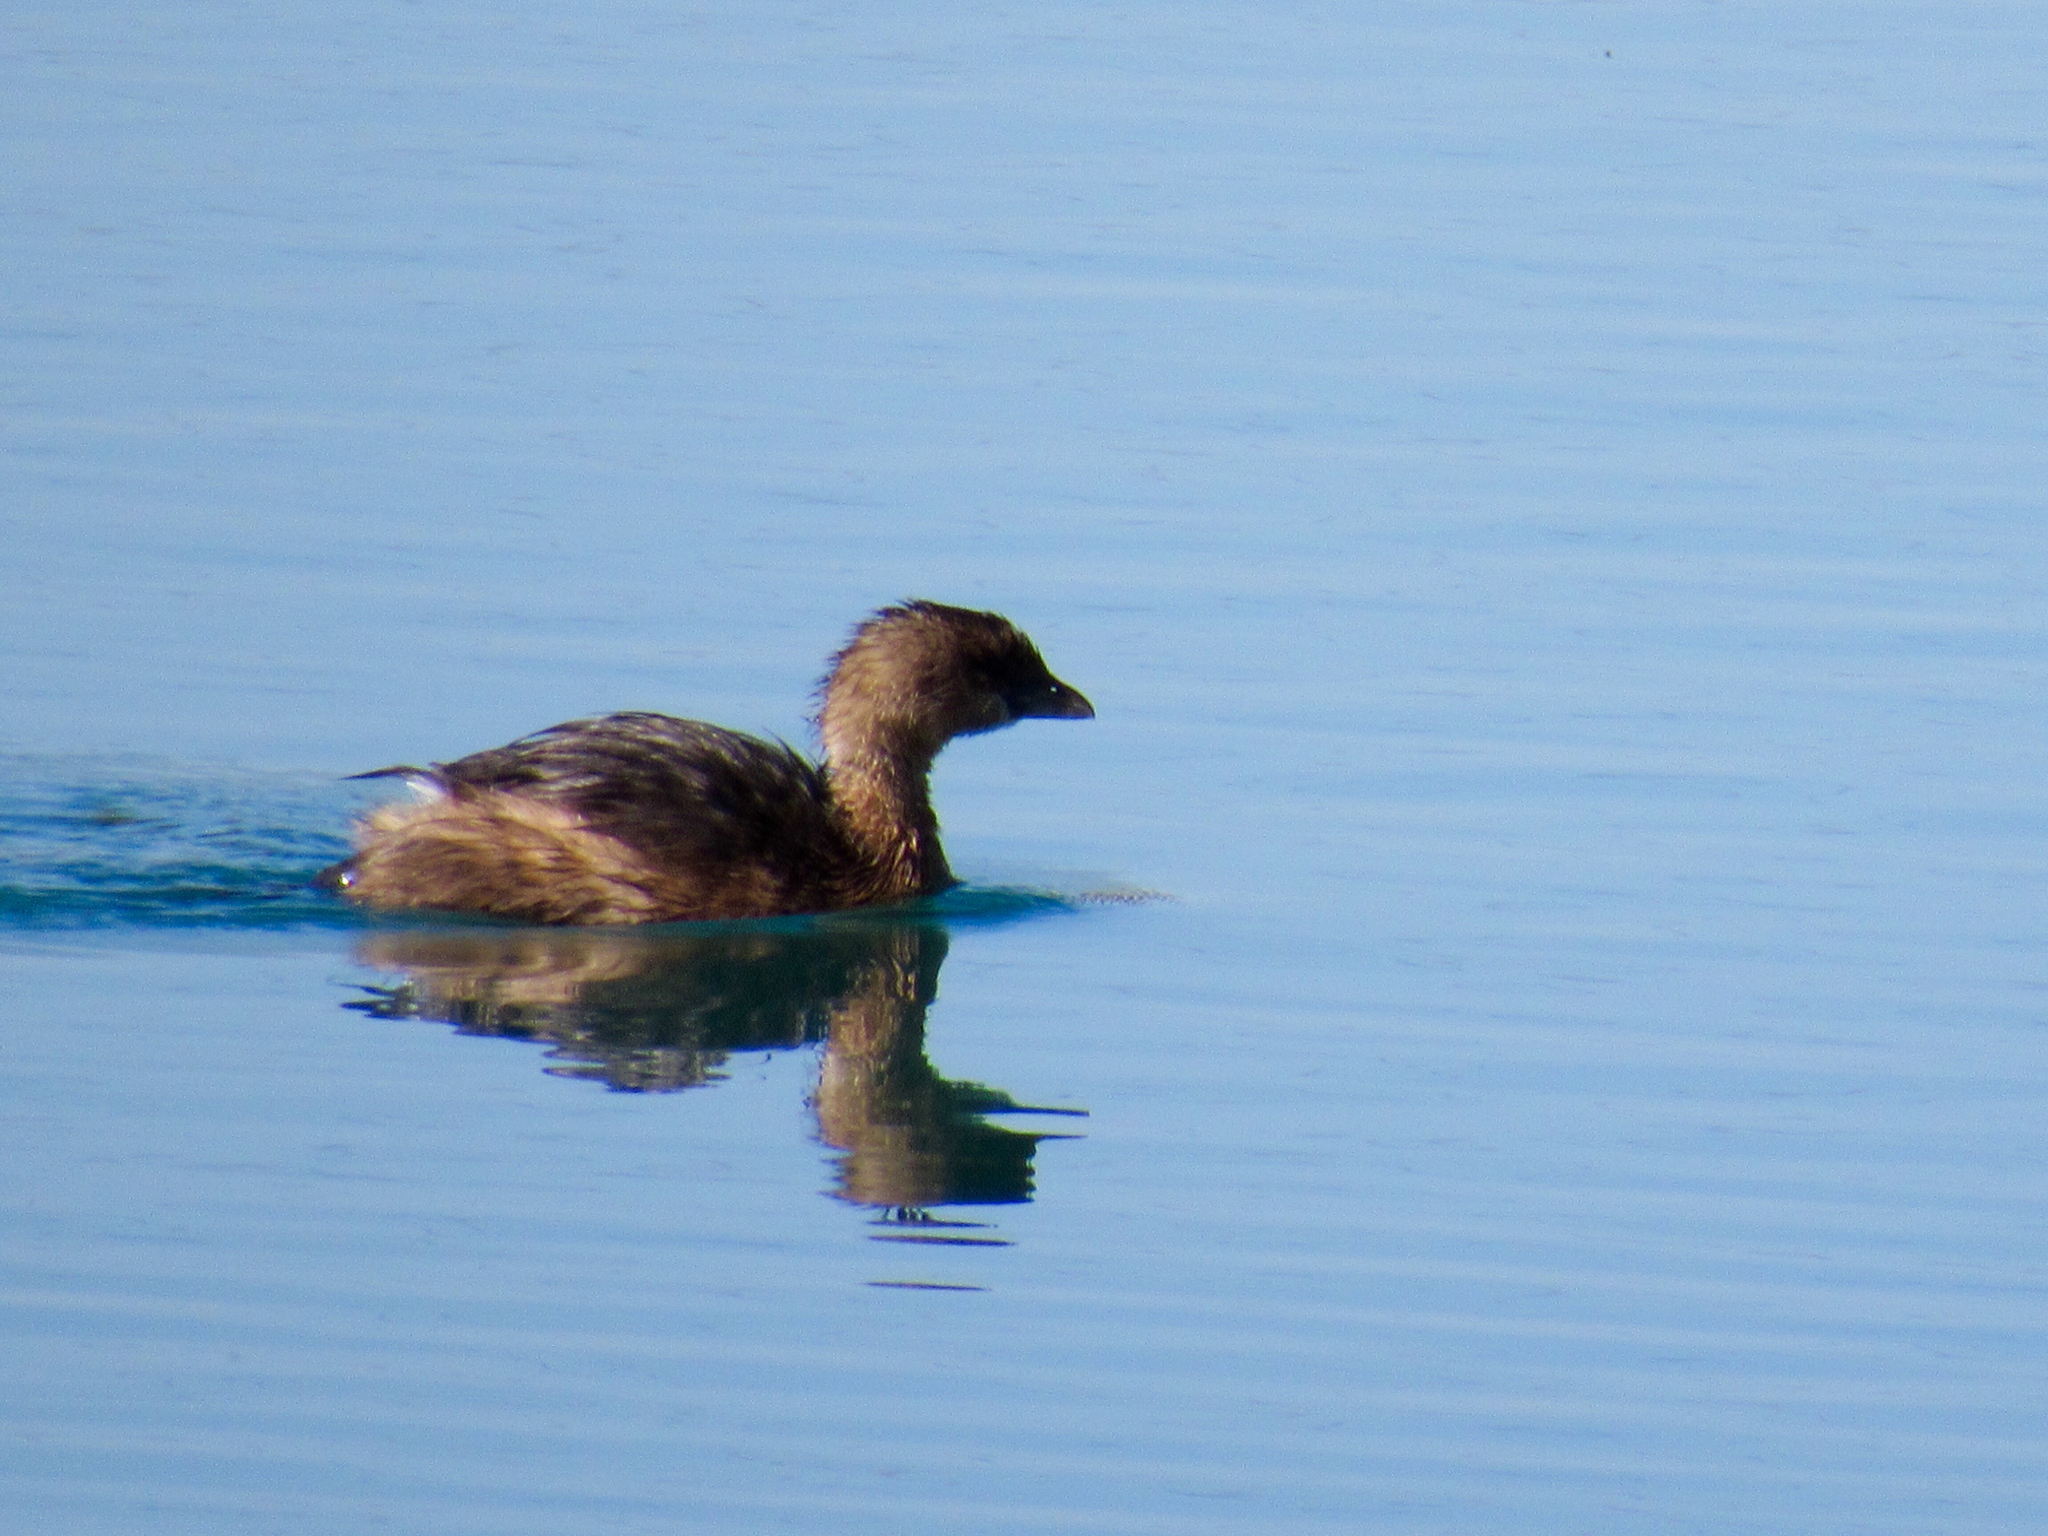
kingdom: Animalia
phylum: Chordata
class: Aves
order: Podicipediformes
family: Podicipedidae
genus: Podilymbus
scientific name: Podilymbus podiceps
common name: Pied-billed grebe
